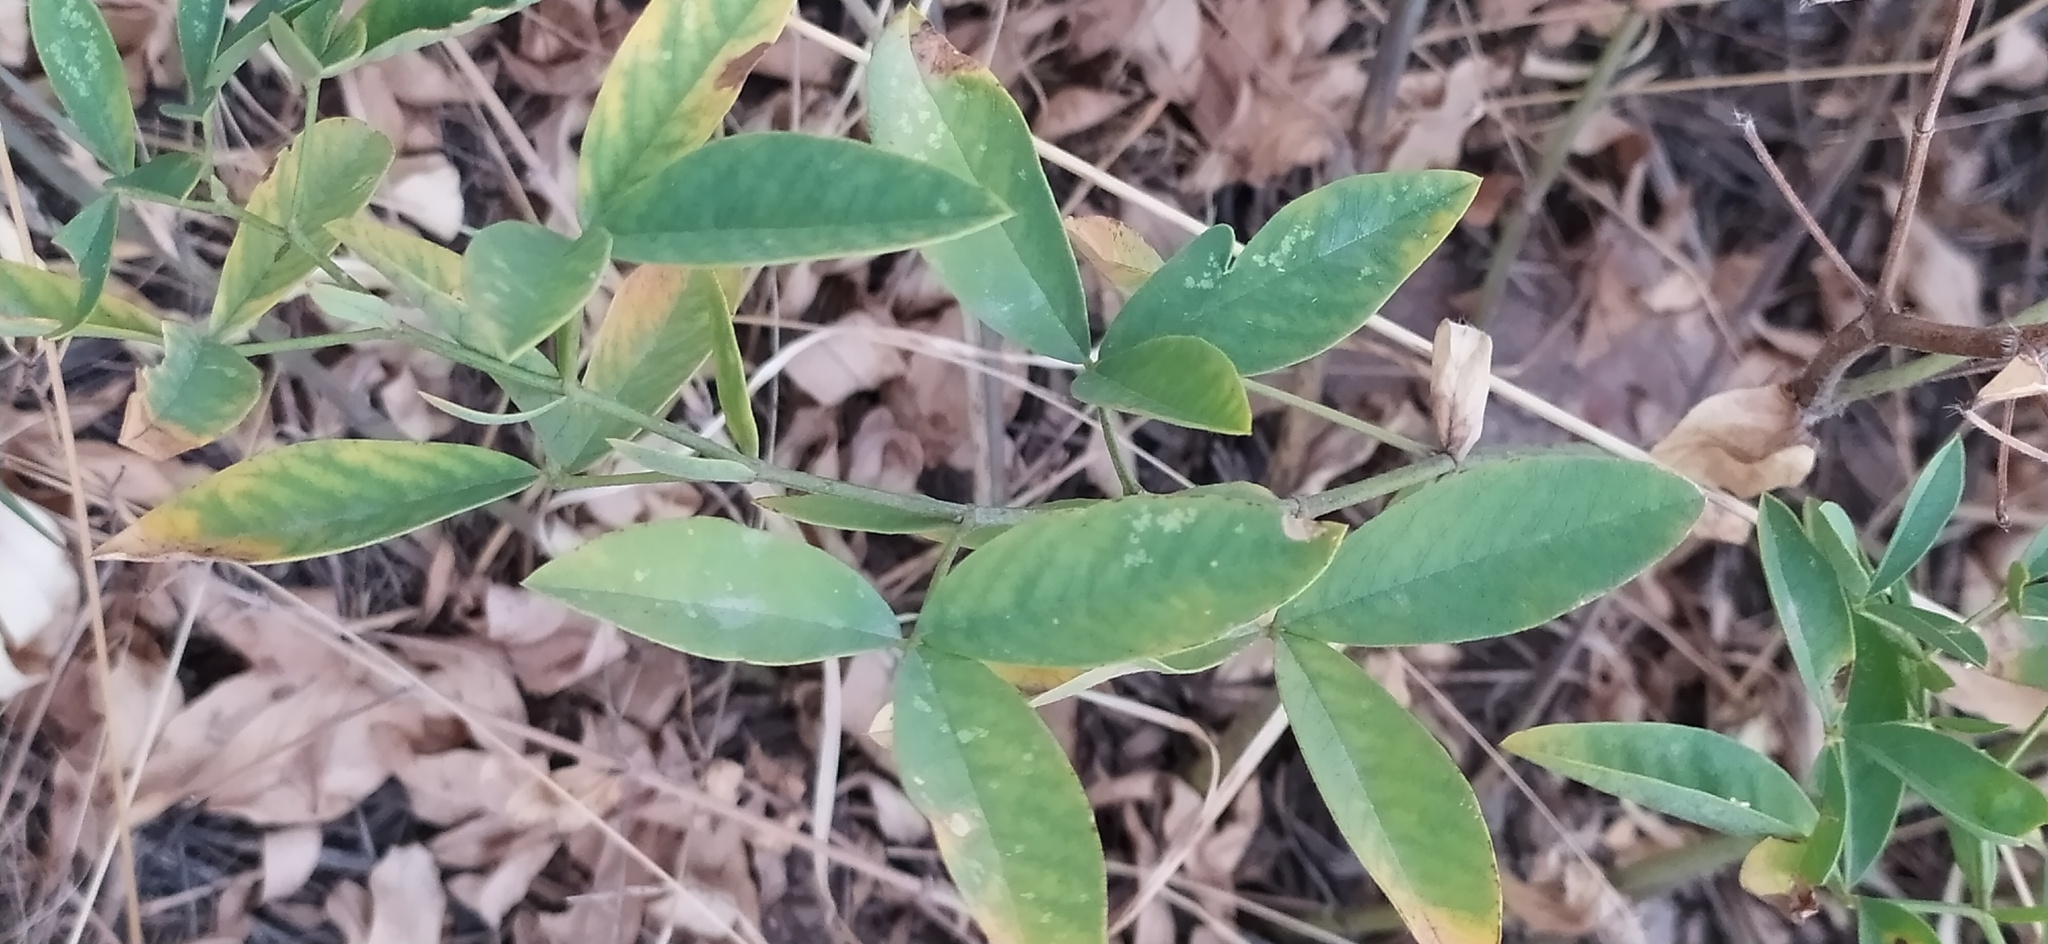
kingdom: Plantae
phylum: Tracheophyta
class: Magnoliopsida
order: Fabales
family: Fabaceae
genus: Thermopsis
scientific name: Thermopsis alterniflora
